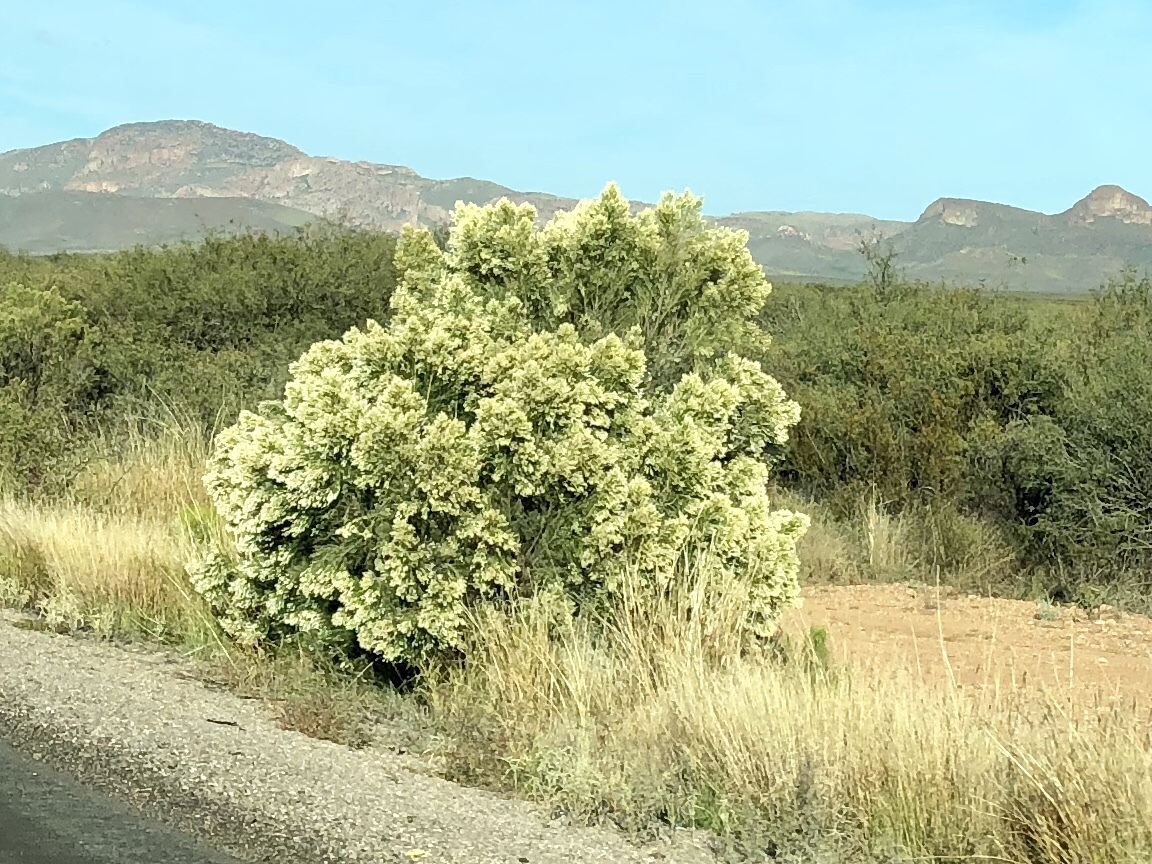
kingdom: Plantae
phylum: Tracheophyta
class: Magnoliopsida
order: Asterales
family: Asteraceae
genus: Baccharis
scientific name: Baccharis sarothroides
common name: Desert-broom
